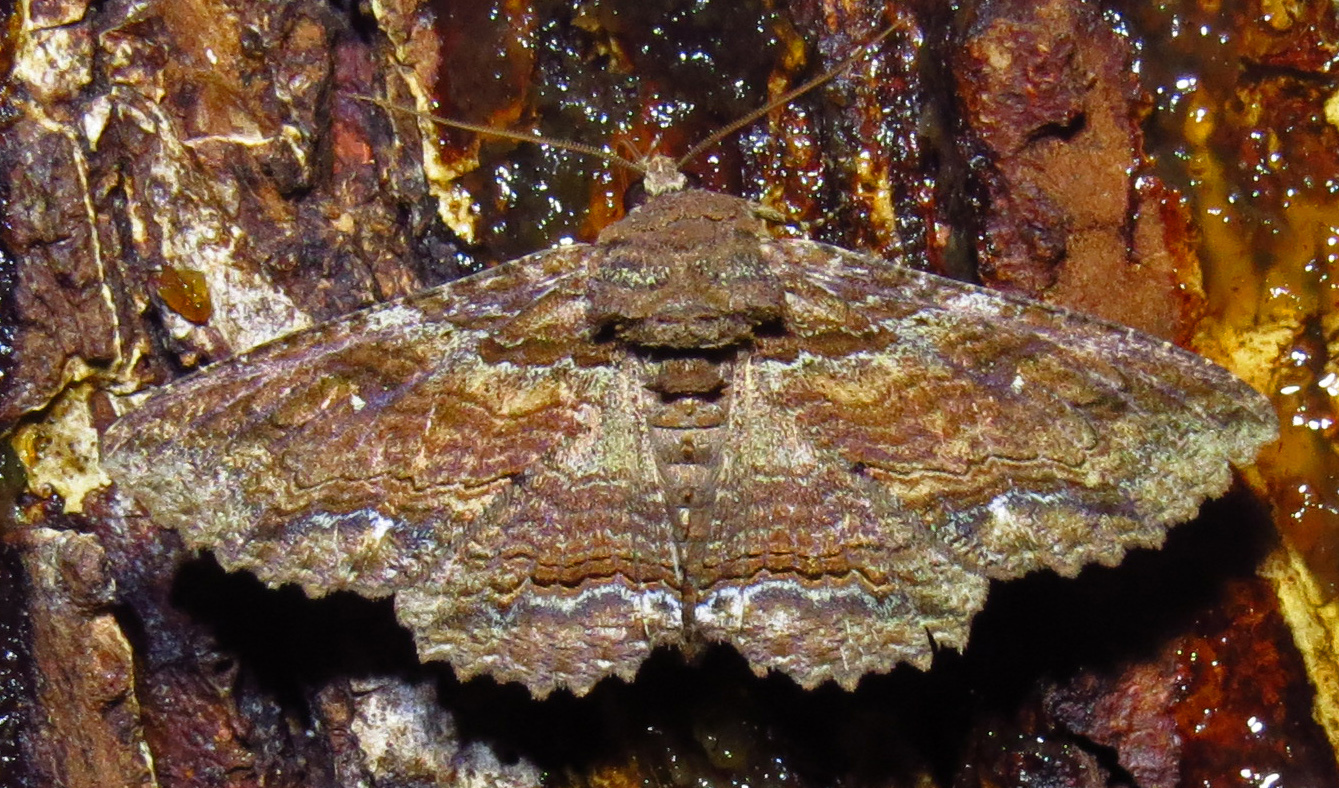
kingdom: Animalia
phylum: Arthropoda
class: Insecta
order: Lepidoptera
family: Erebidae
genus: Zale
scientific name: Zale lunata
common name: Lunate zale moth
